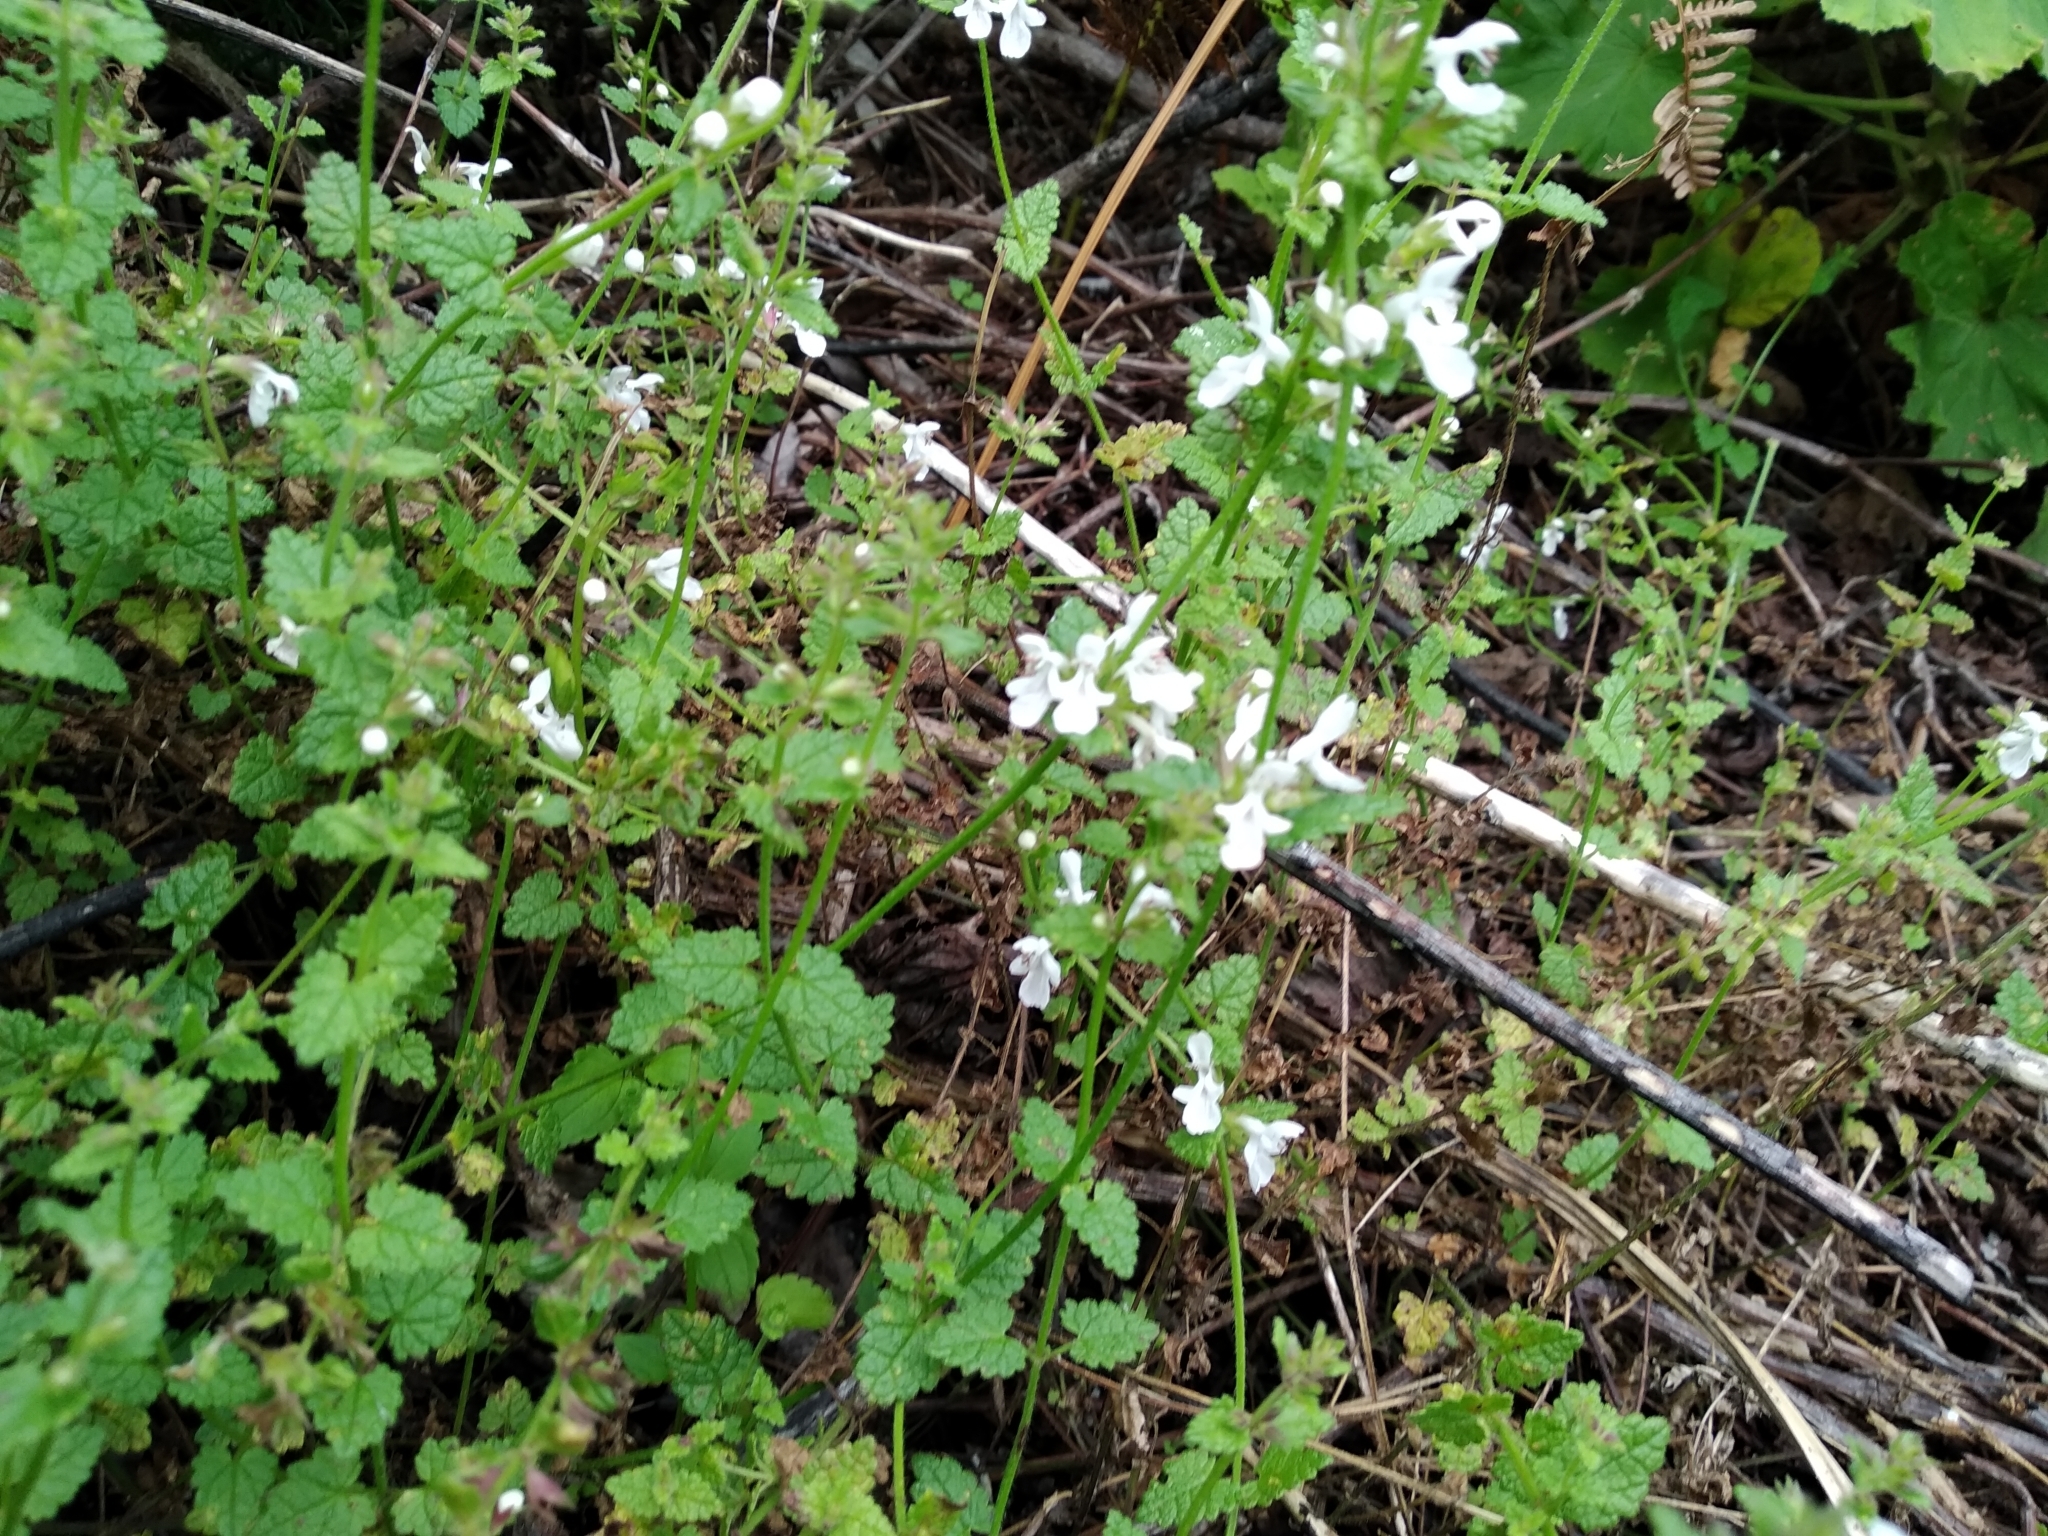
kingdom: Plantae
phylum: Tracheophyta
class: Magnoliopsida
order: Lamiales
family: Lamiaceae
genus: Stachys
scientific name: Stachys aethiopica
